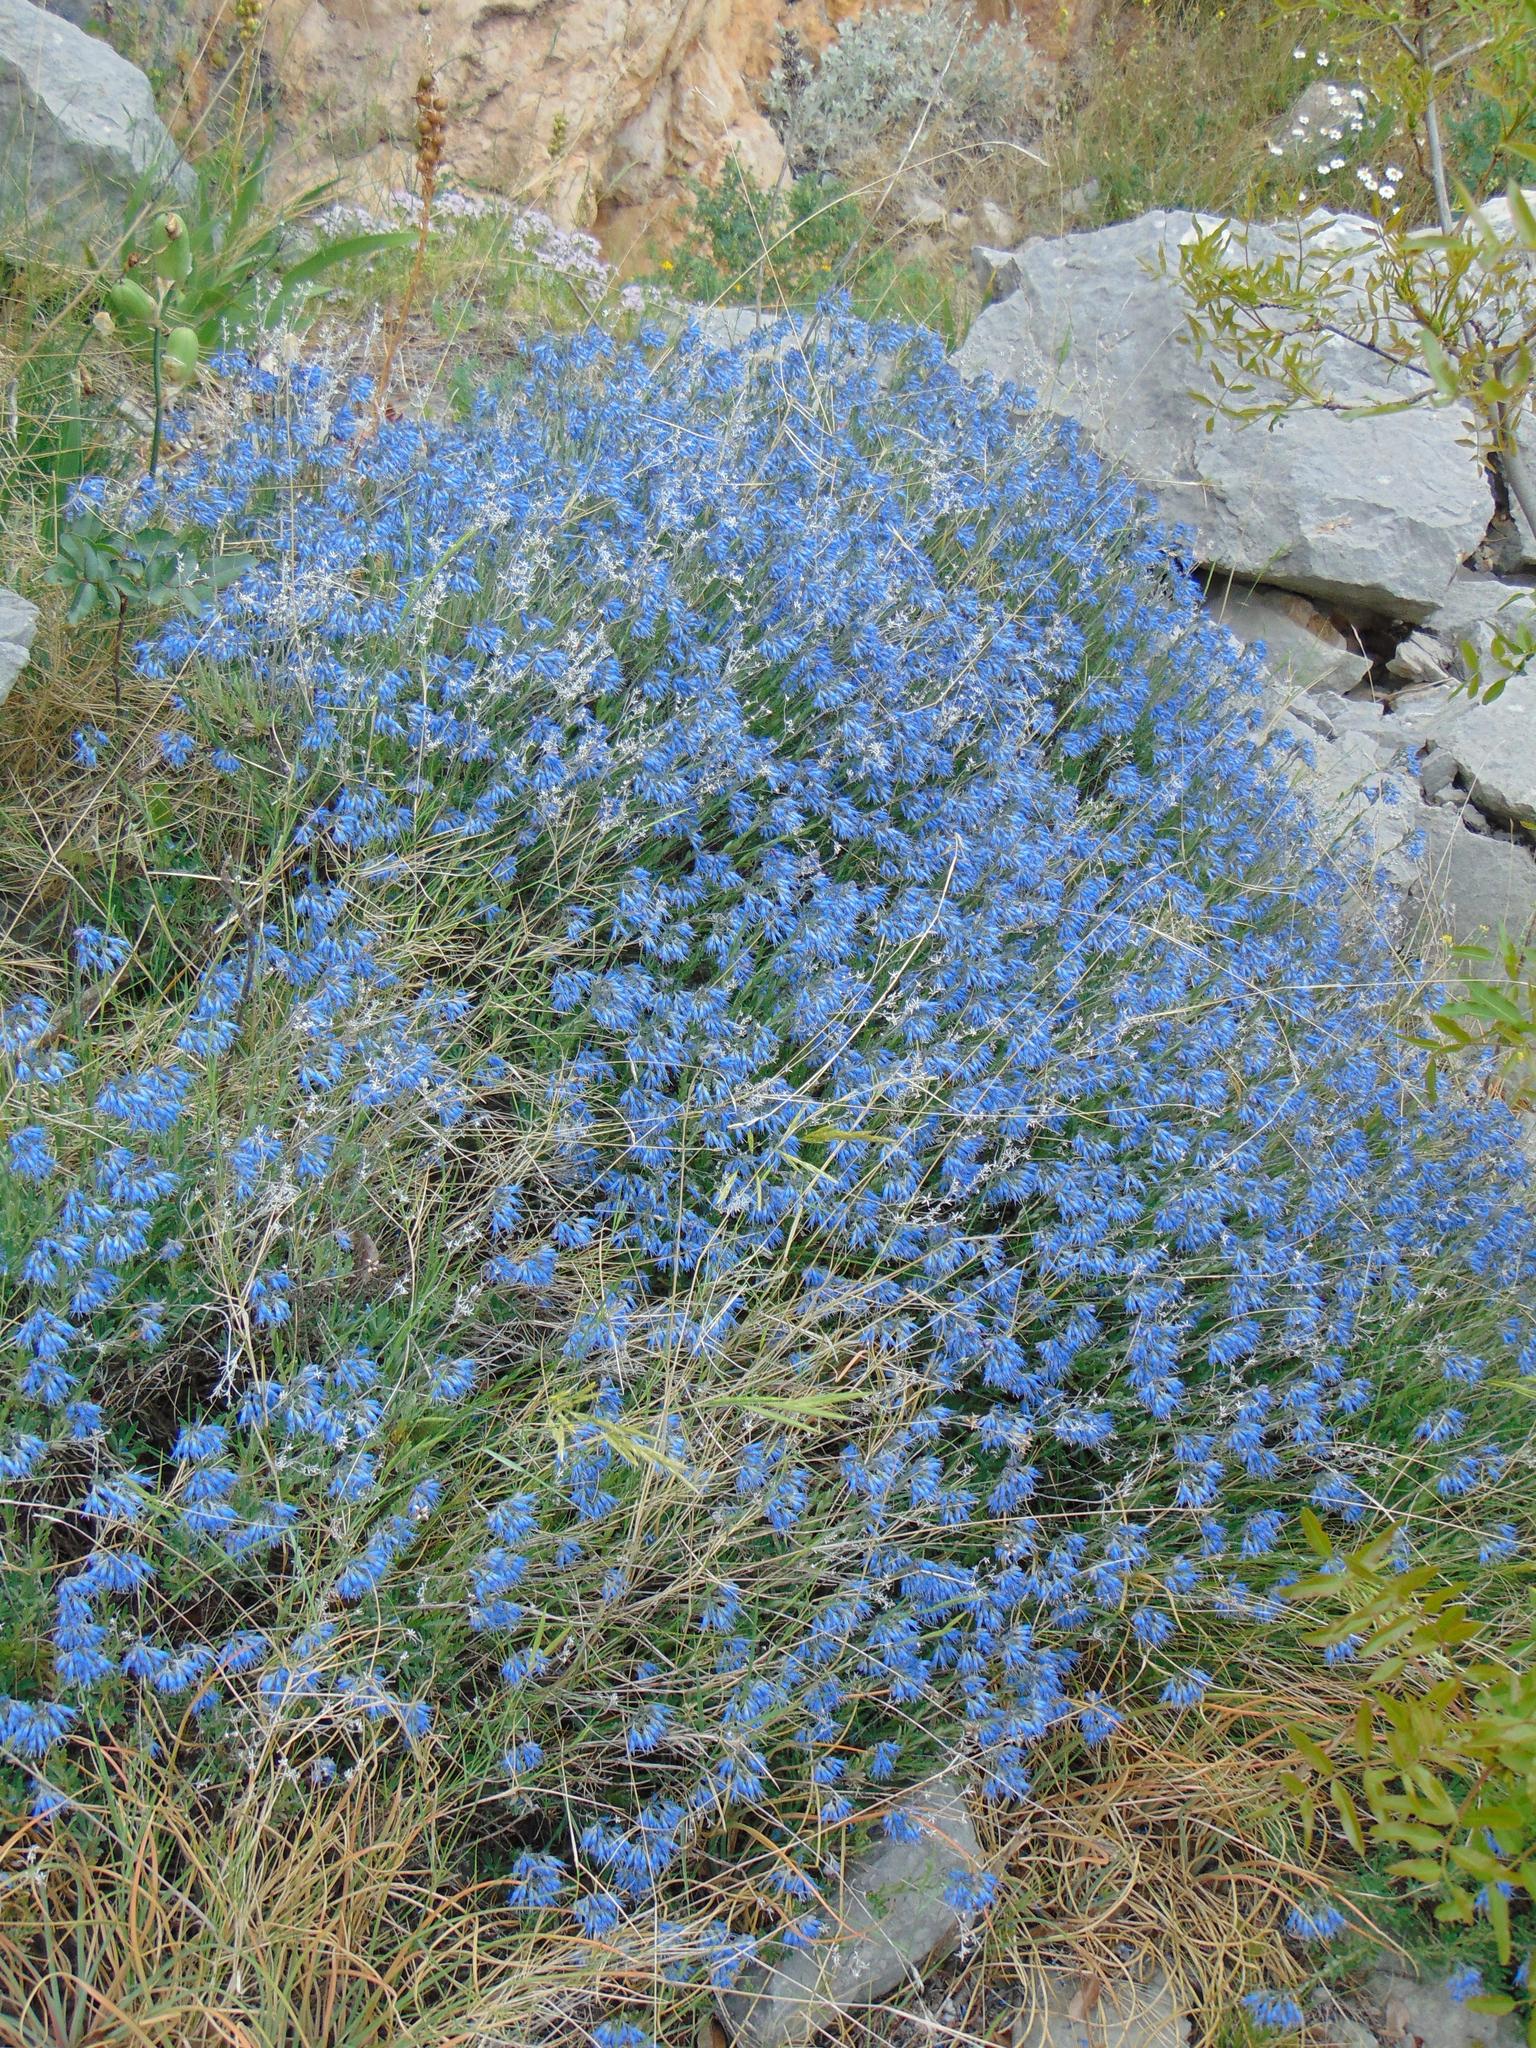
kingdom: Plantae
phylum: Tracheophyta
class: Magnoliopsida
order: Boraginales
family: Boraginaceae
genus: Moltkia
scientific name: Moltkia petraea
